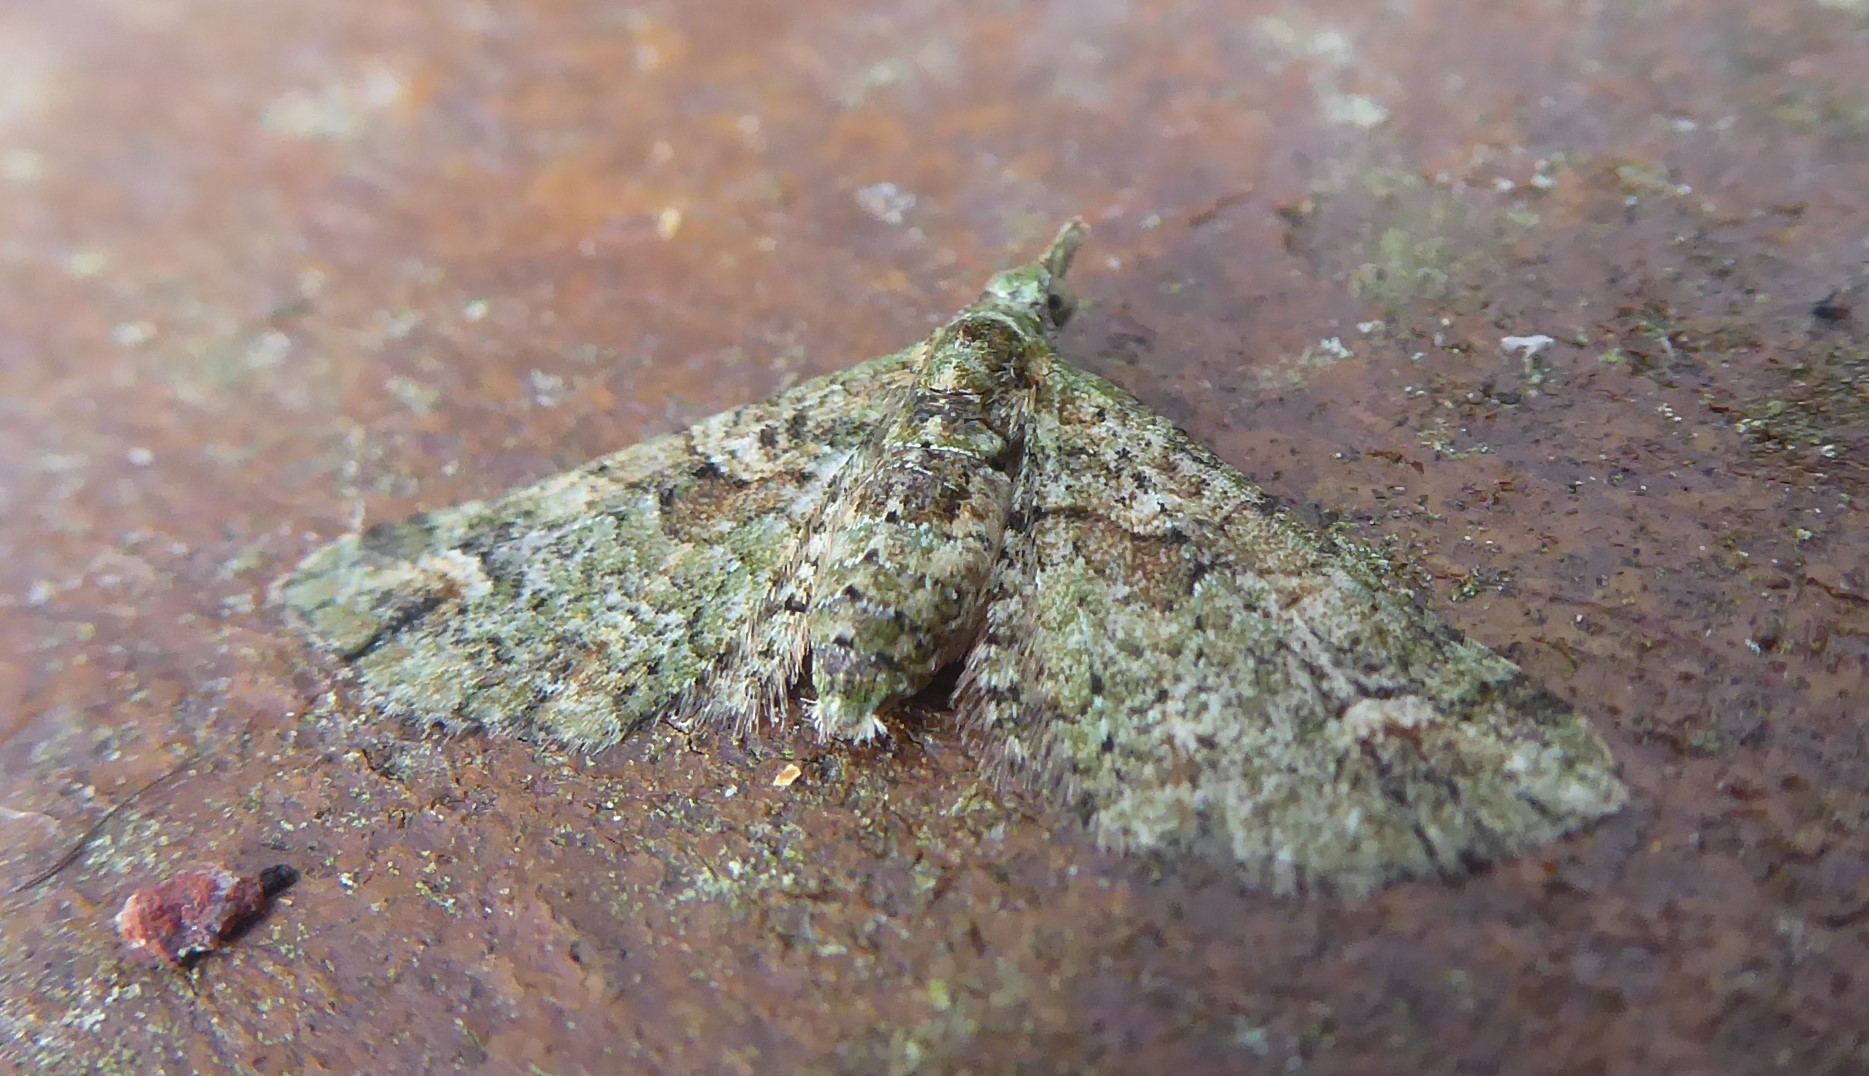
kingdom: Animalia
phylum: Arthropoda
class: Insecta
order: Lepidoptera
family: Geometridae
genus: Idaea
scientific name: Idaea mutanda
